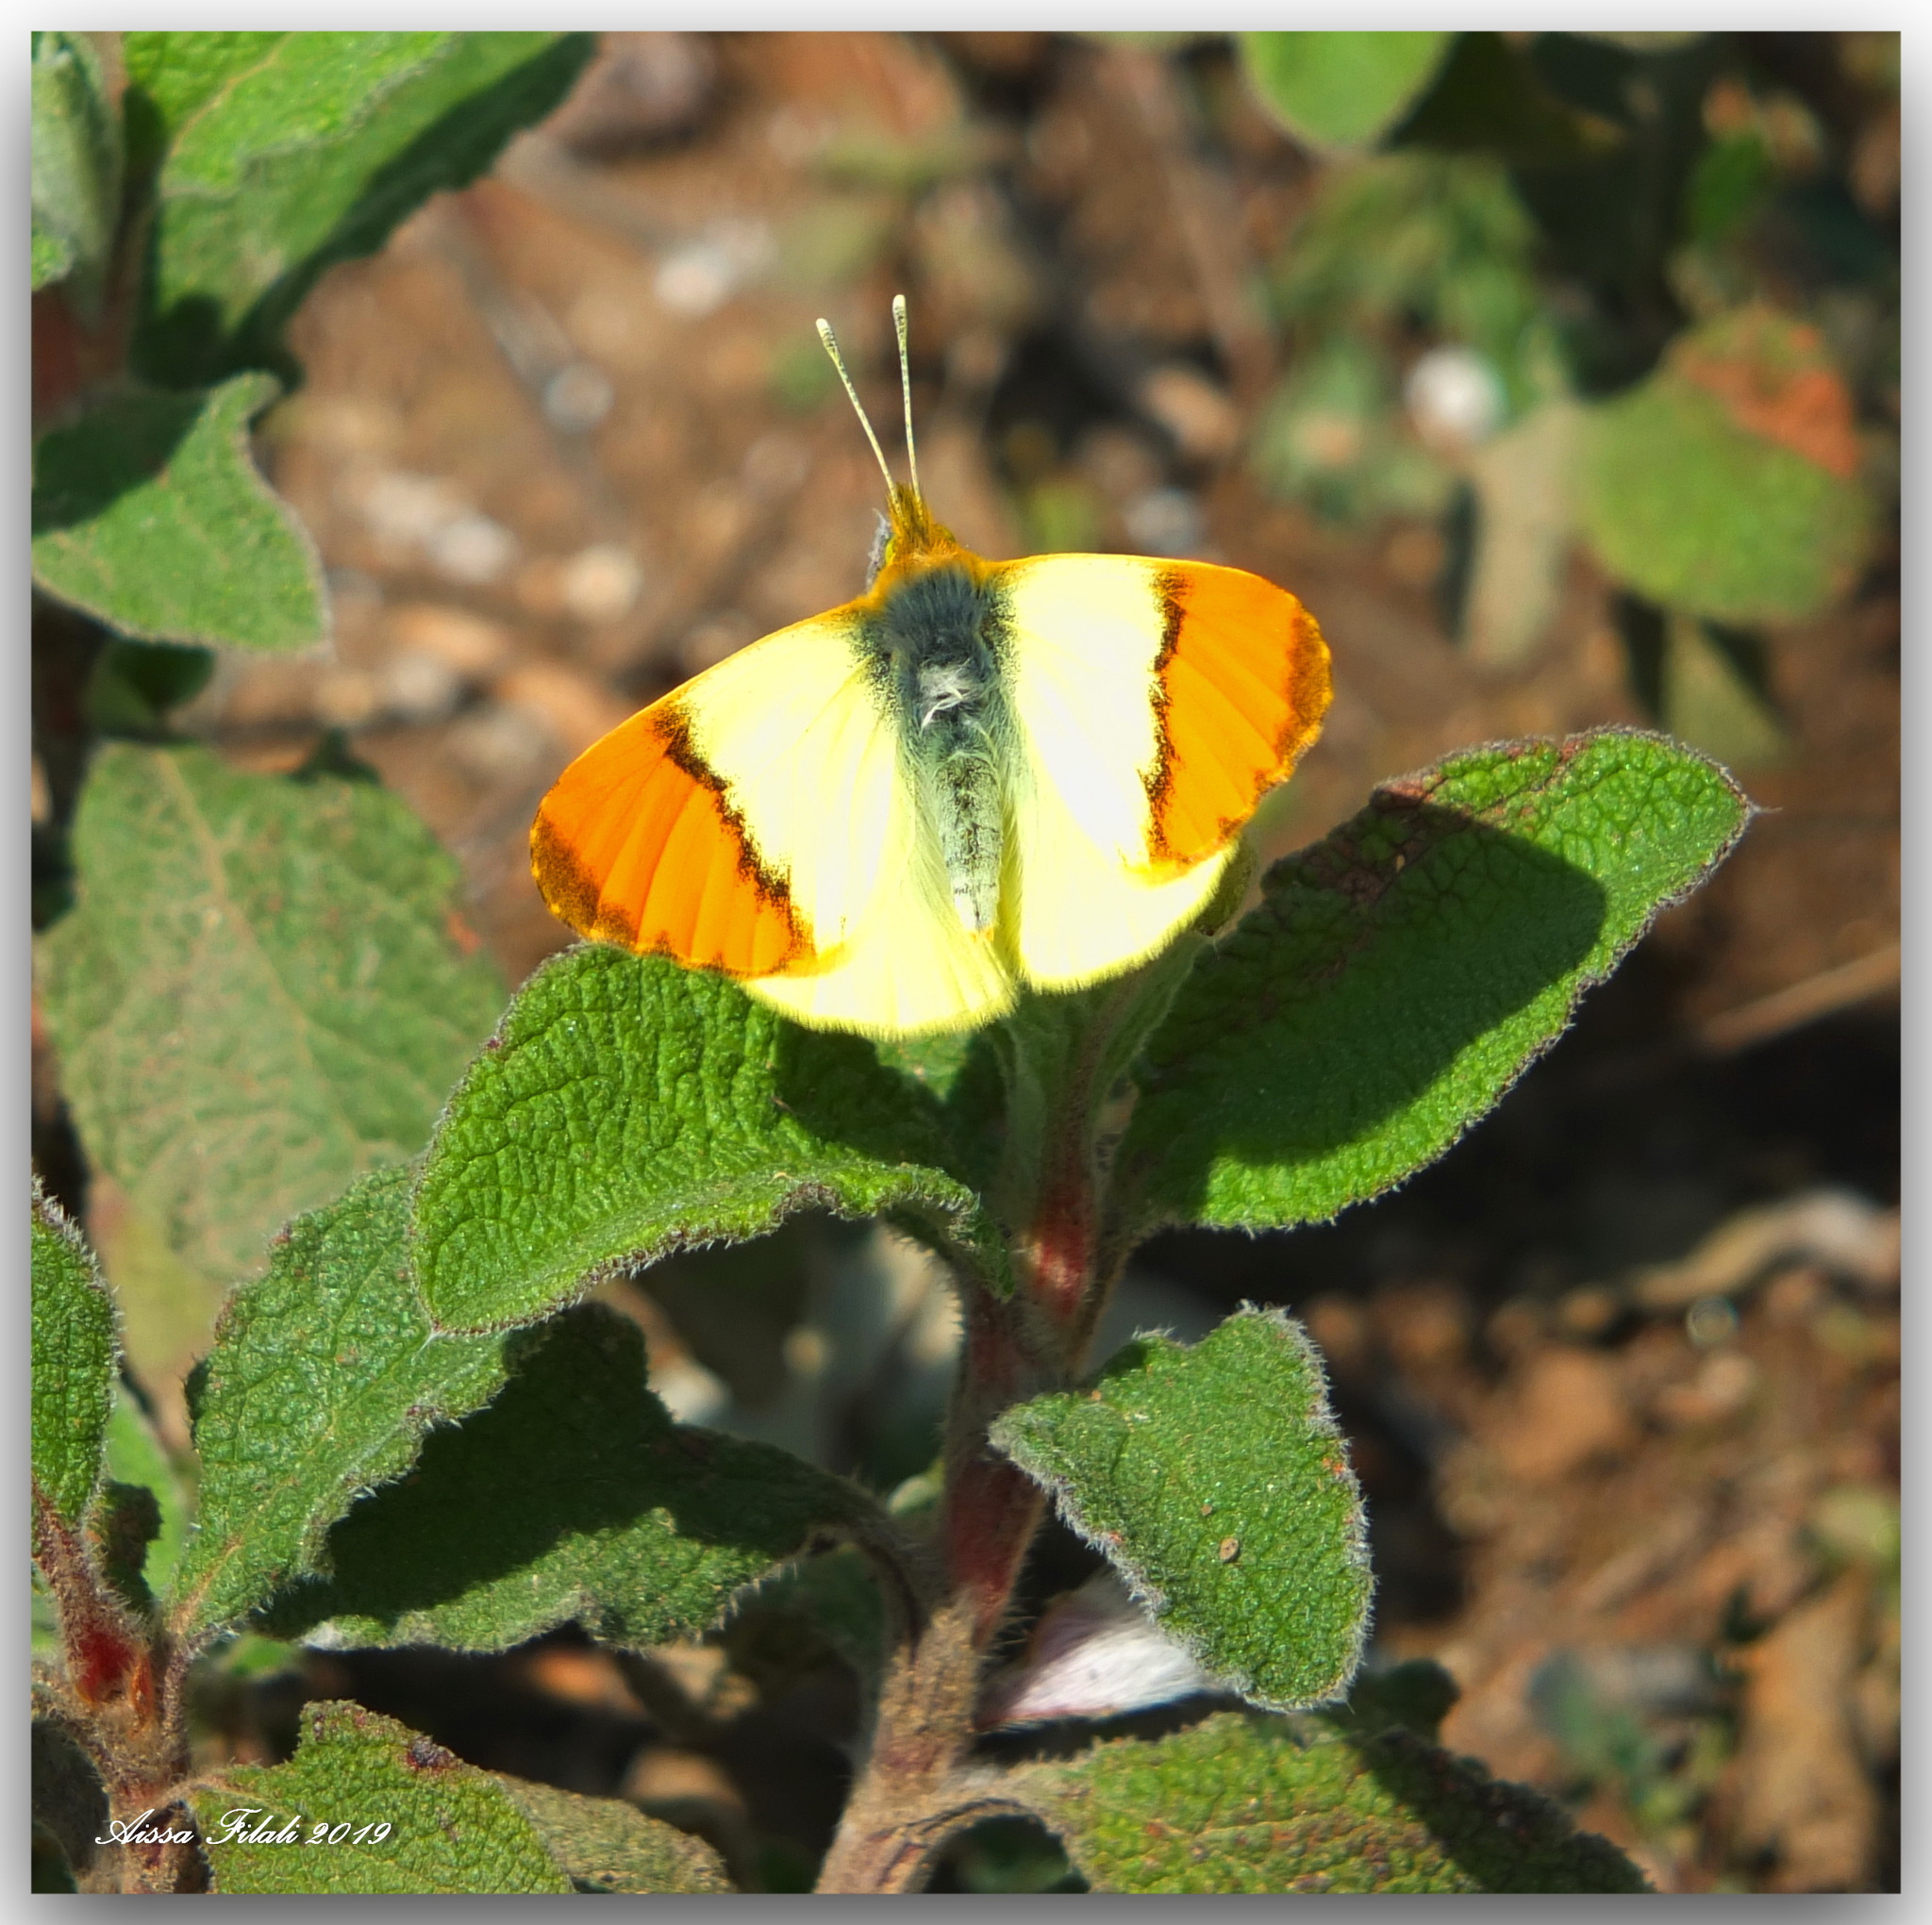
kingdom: Animalia
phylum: Arthropoda
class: Insecta
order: Lepidoptera
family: Pieridae
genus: Anthocharis
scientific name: Anthocharis belia
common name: Moroccan orange tip
